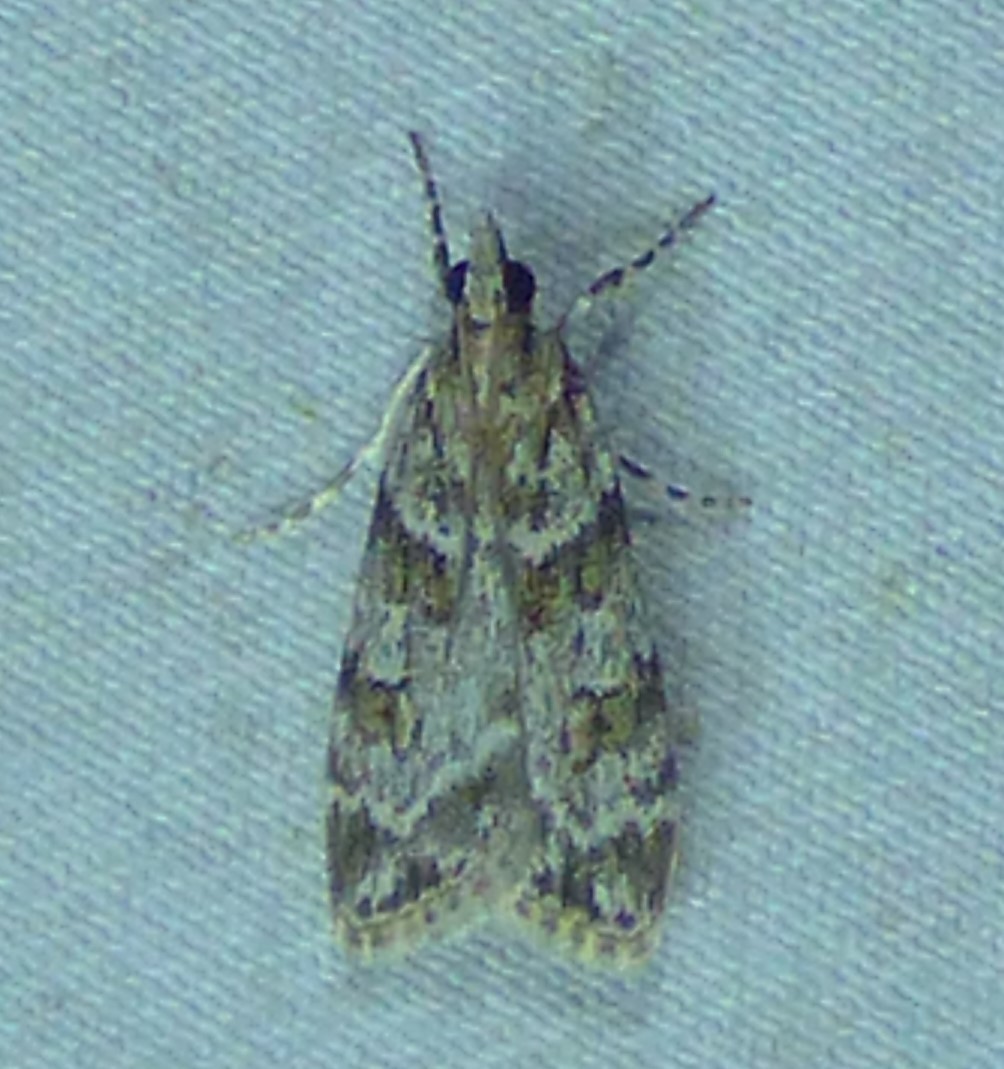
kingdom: Animalia
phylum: Arthropoda
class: Insecta
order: Lepidoptera
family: Crambidae
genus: Scoparia
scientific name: Scoparia biplagialis
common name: Double-striped scoparia moth
